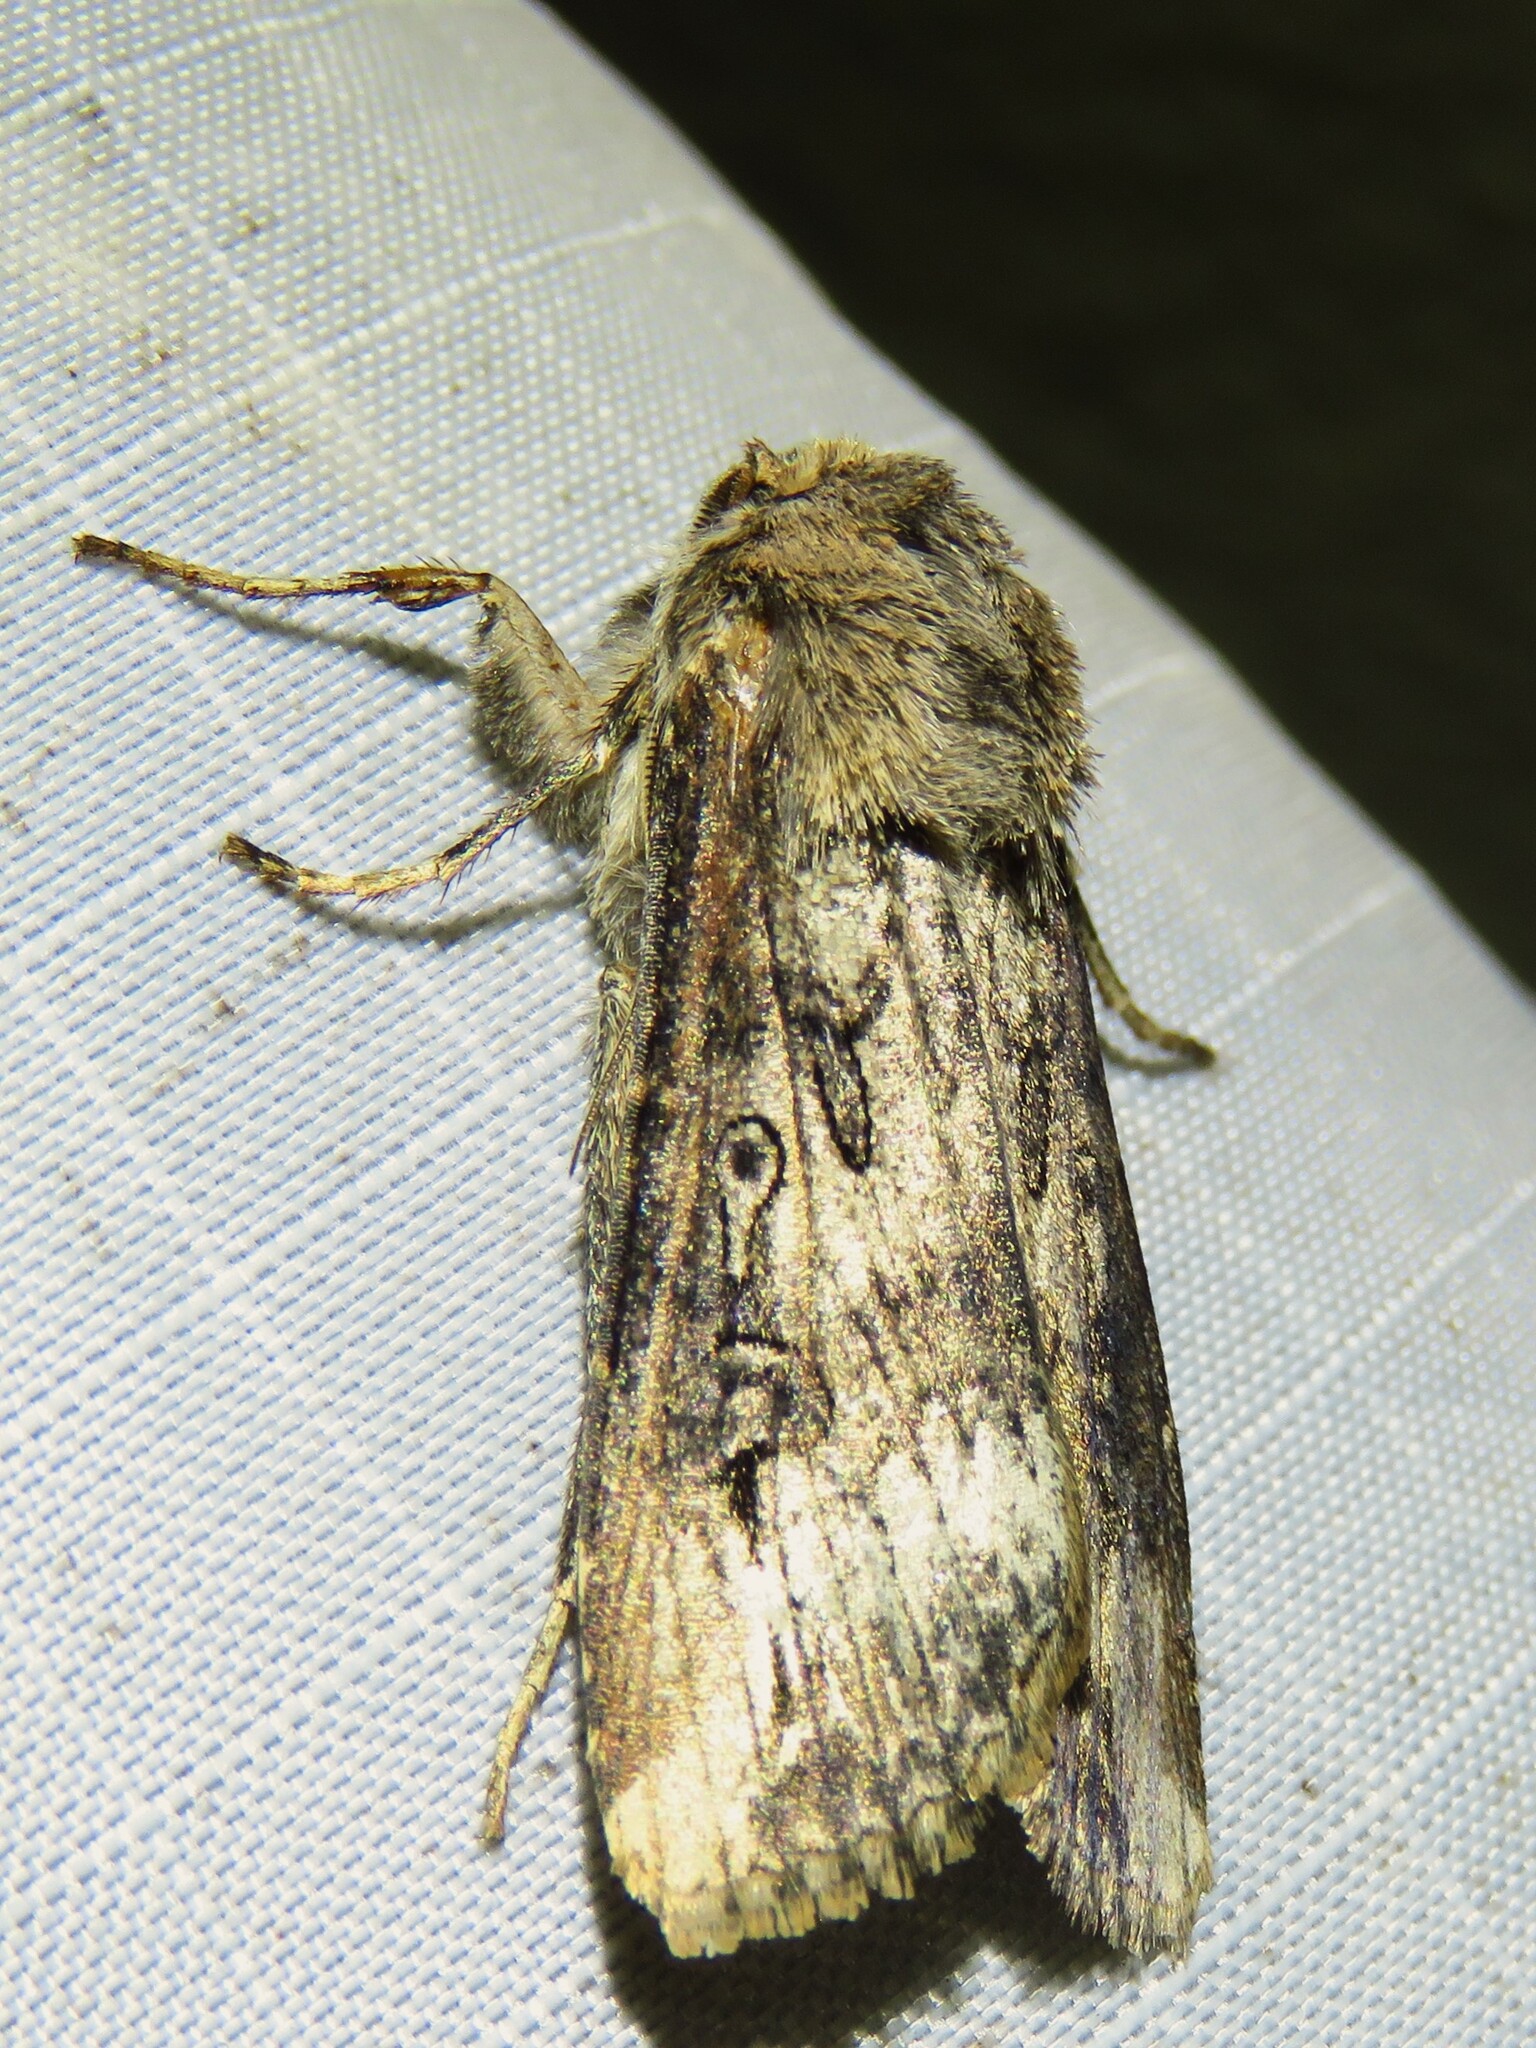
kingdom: Animalia
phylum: Arthropoda
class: Insecta
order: Lepidoptera
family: Noctuidae
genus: Agrotis
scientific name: Agrotis ipsilon
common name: Dark sword-grass
